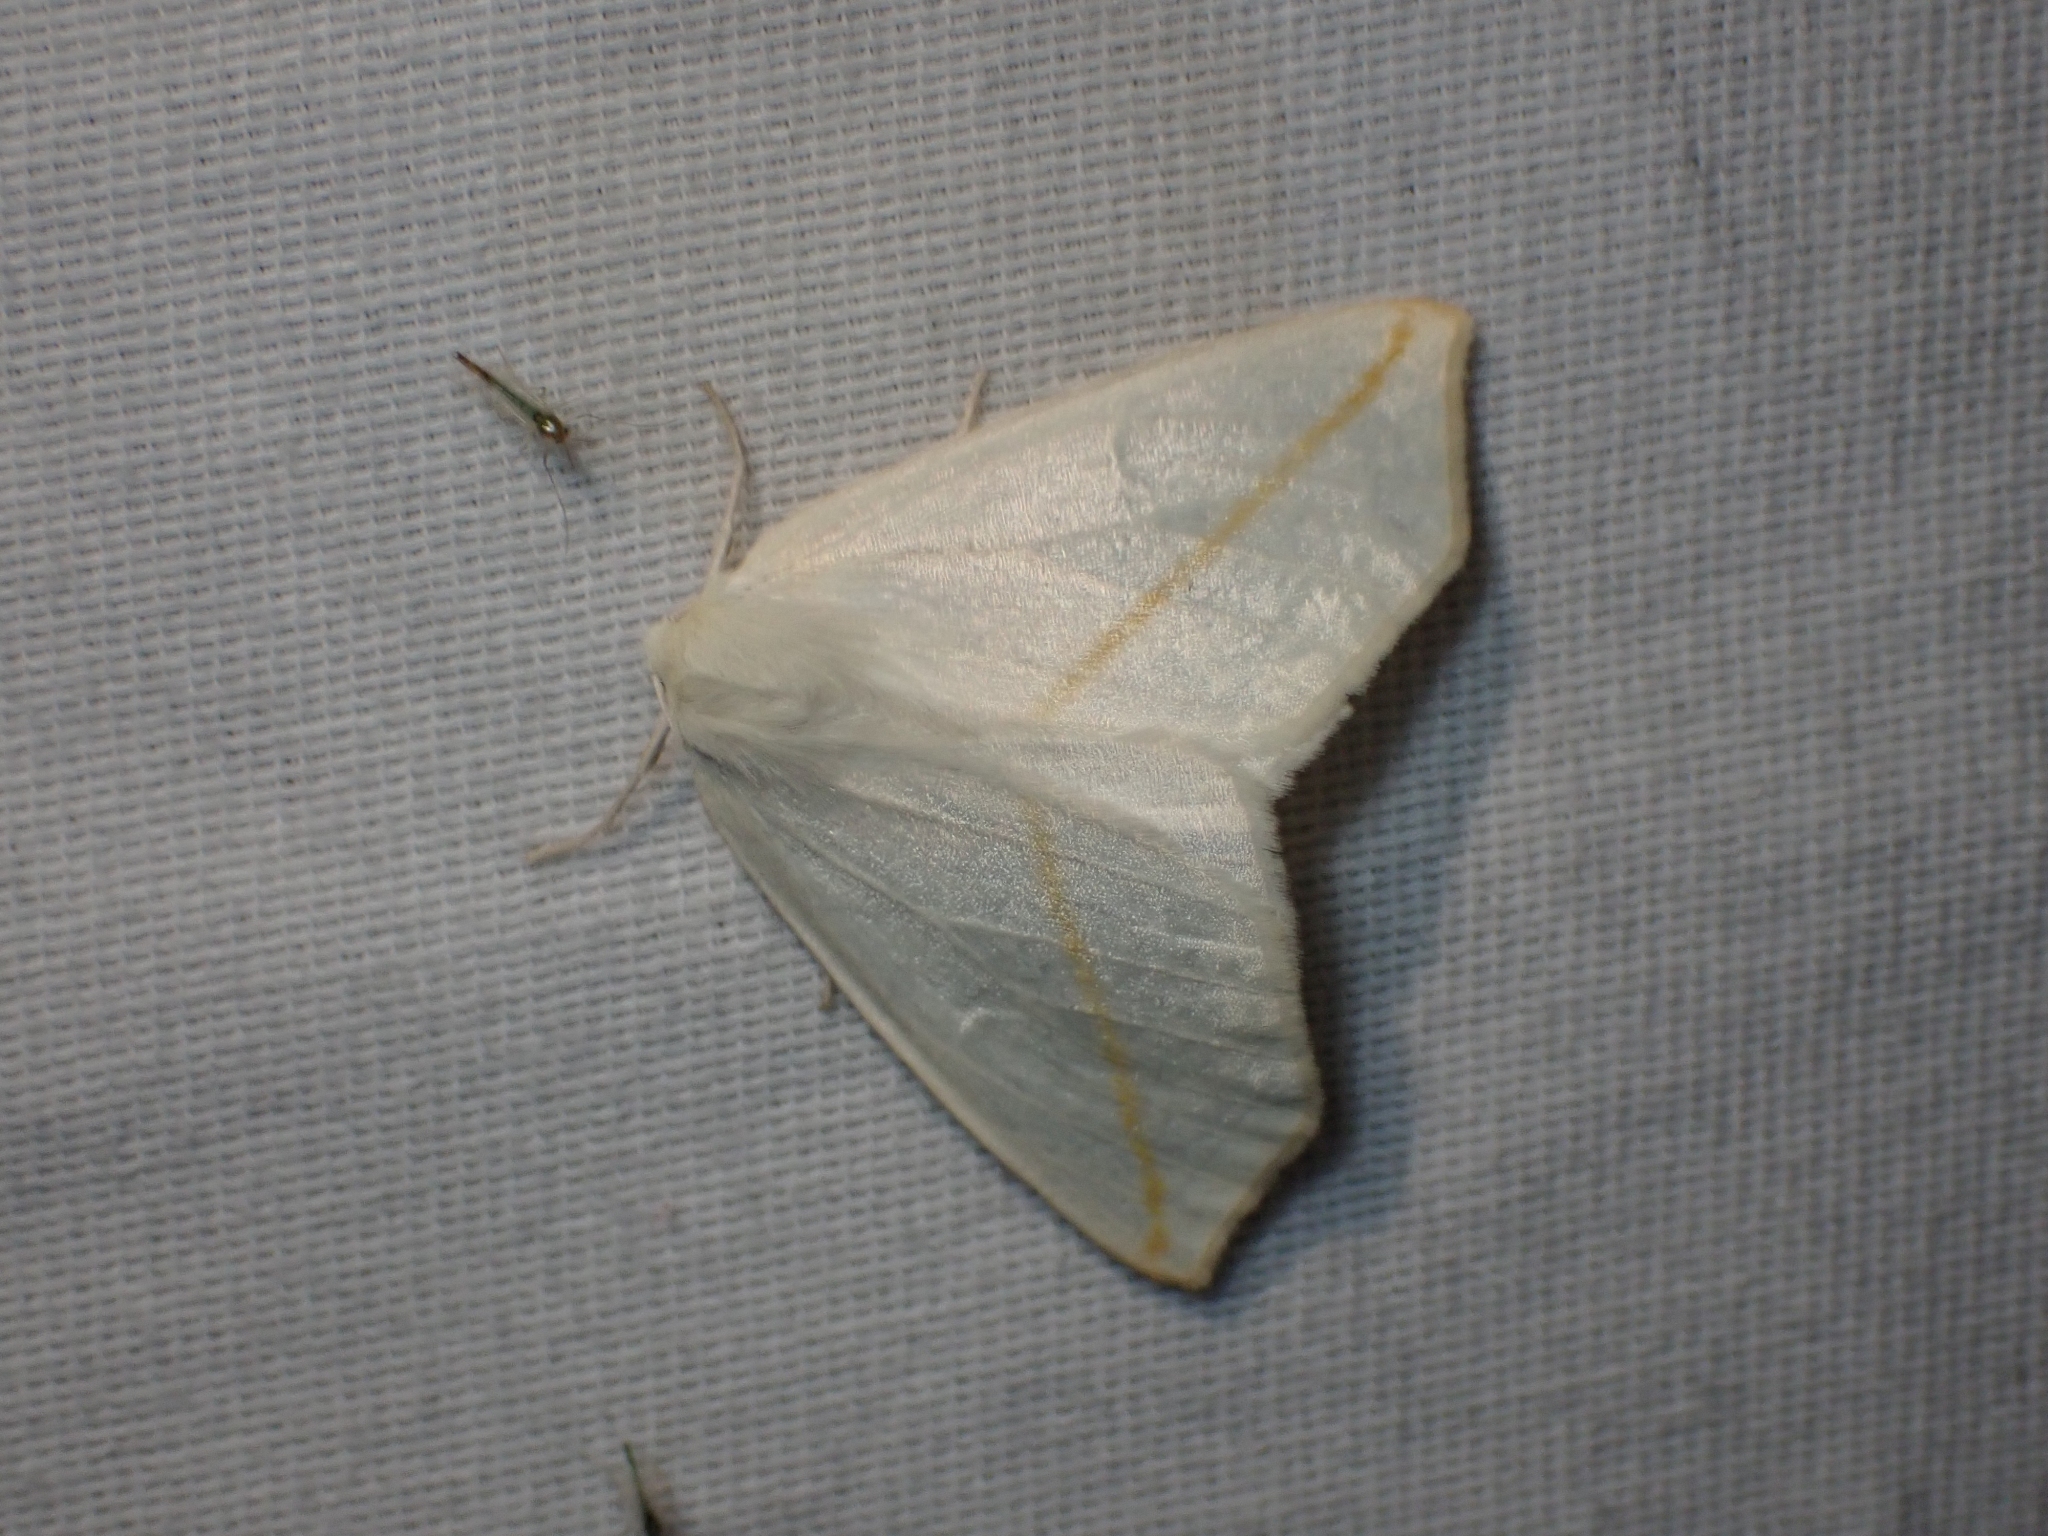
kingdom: Animalia
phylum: Arthropoda
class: Insecta
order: Lepidoptera
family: Geometridae
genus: Tetracis
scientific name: Tetracis cachexiata
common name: White slant-line
